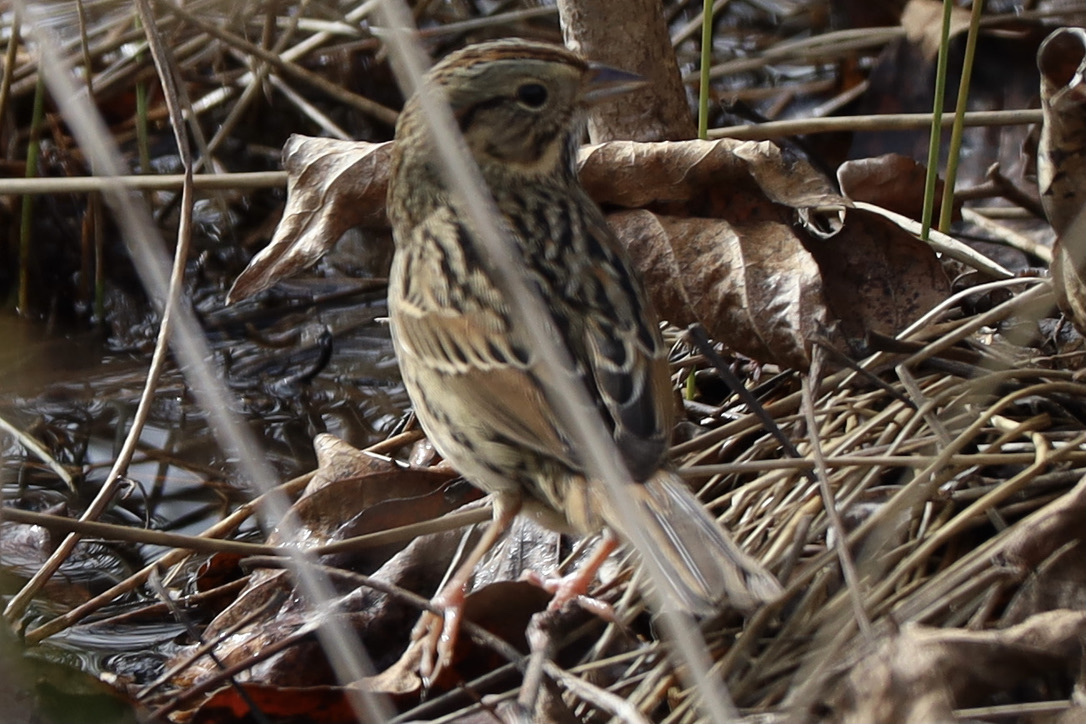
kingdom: Animalia
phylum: Chordata
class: Aves
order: Passeriformes
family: Passerellidae
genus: Melospiza
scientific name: Melospiza lincolnii
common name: Lincoln's sparrow
